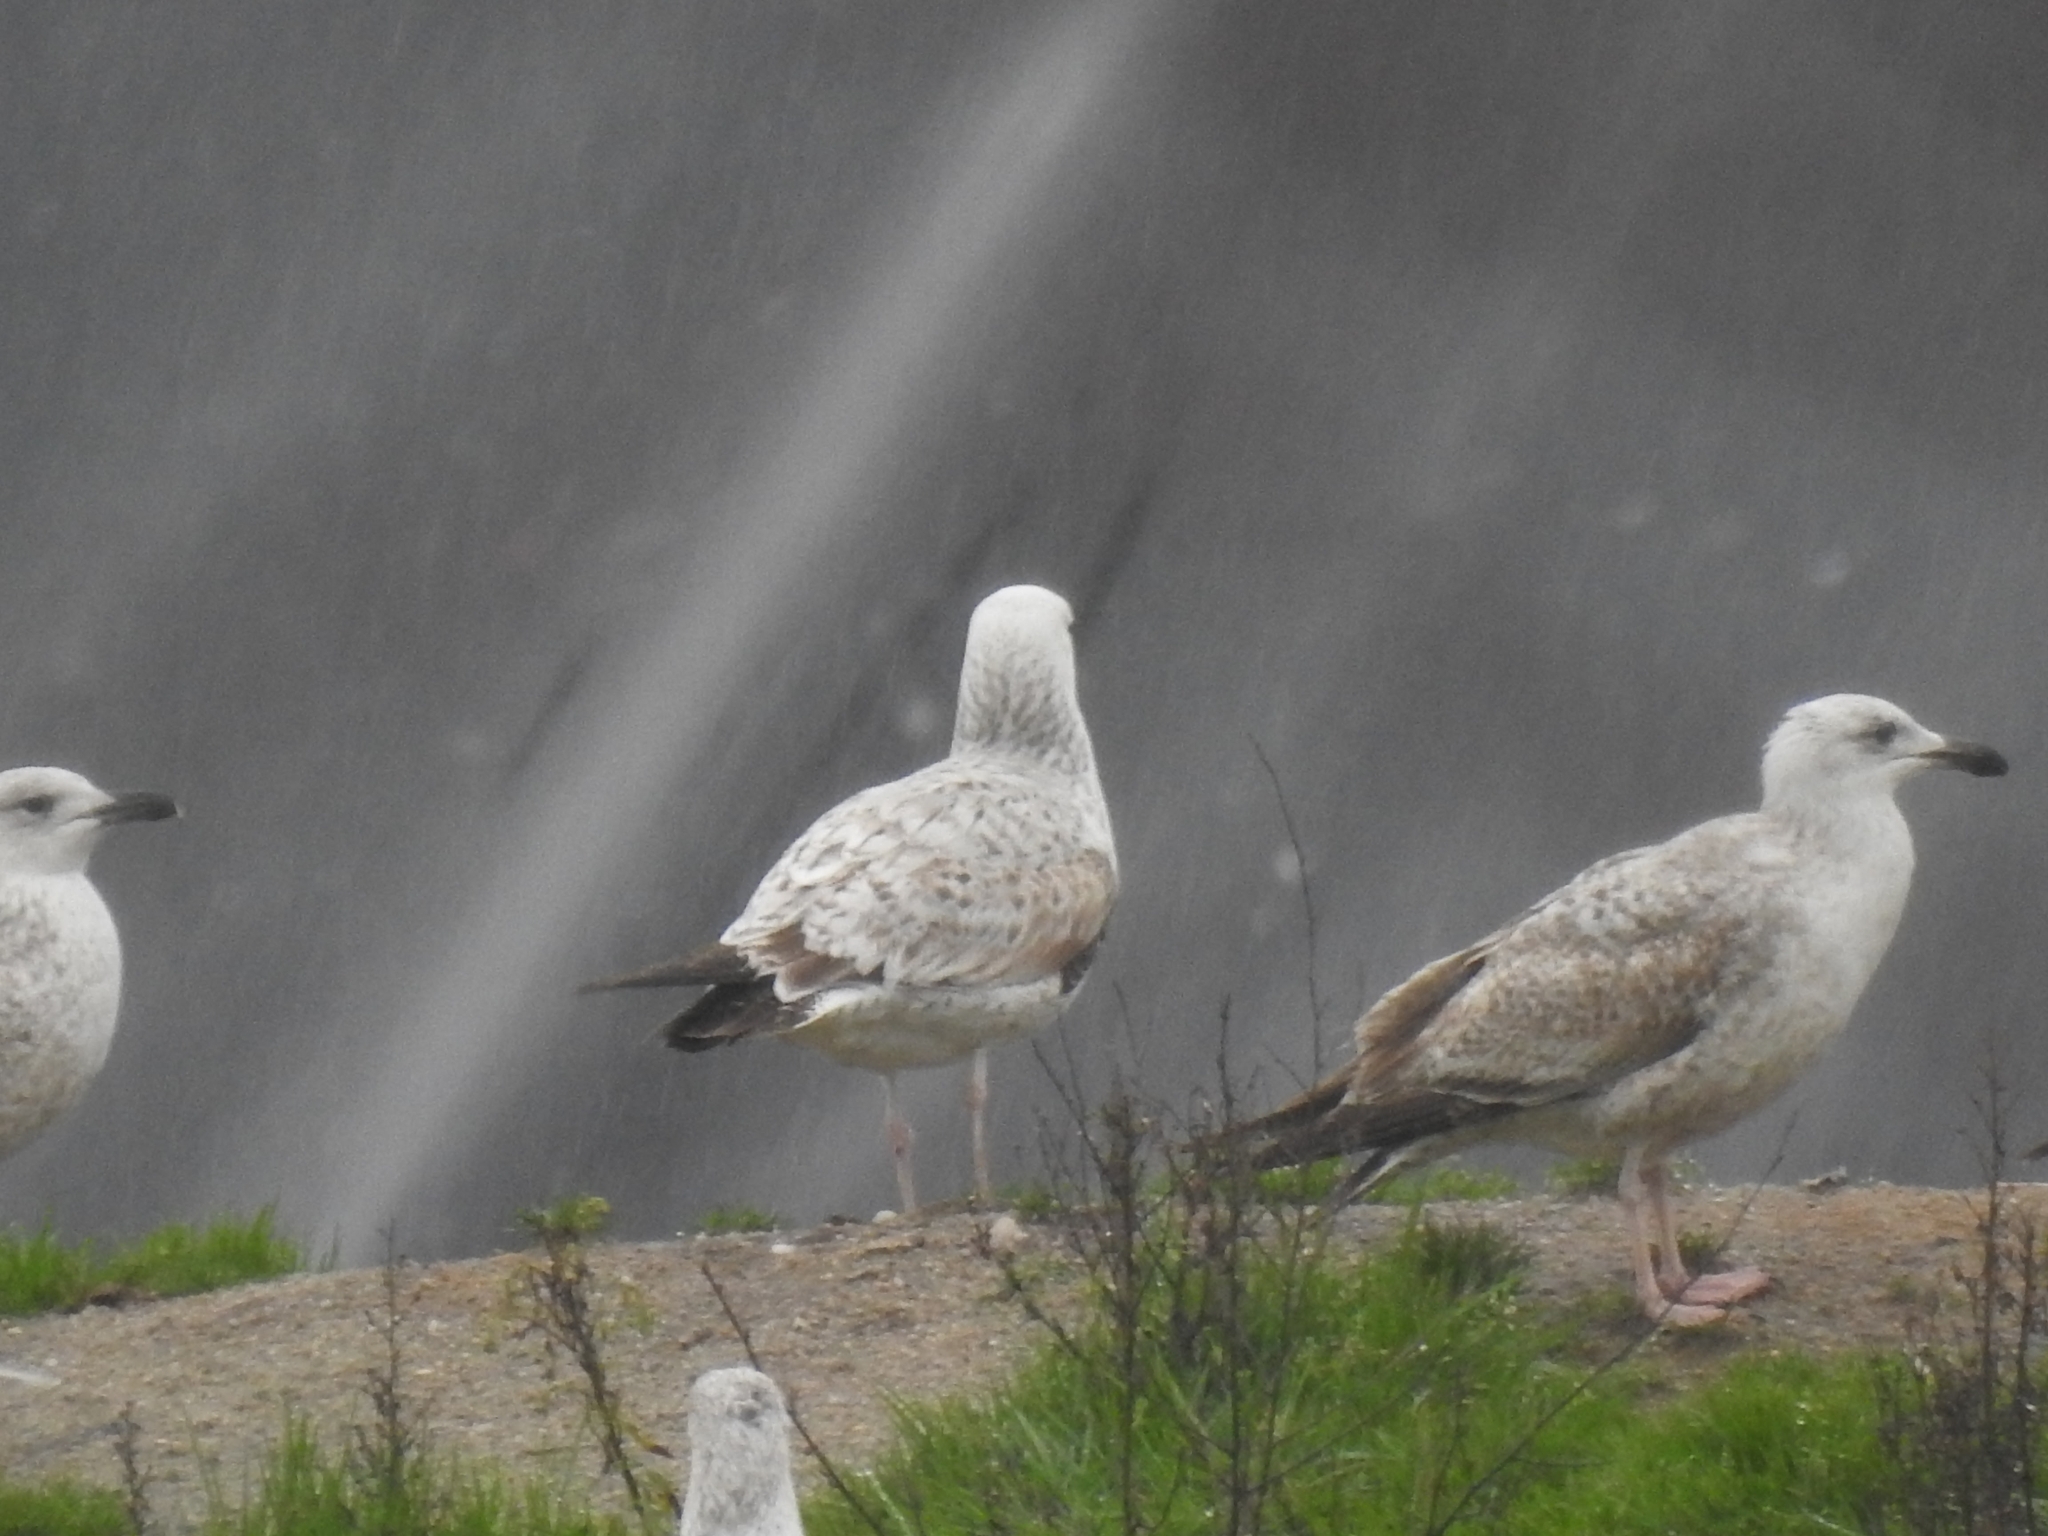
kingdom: Animalia
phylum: Chordata
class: Aves
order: Charadriiformes
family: Laridae
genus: Larus
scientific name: Larus cachinnans
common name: Caspian gull
